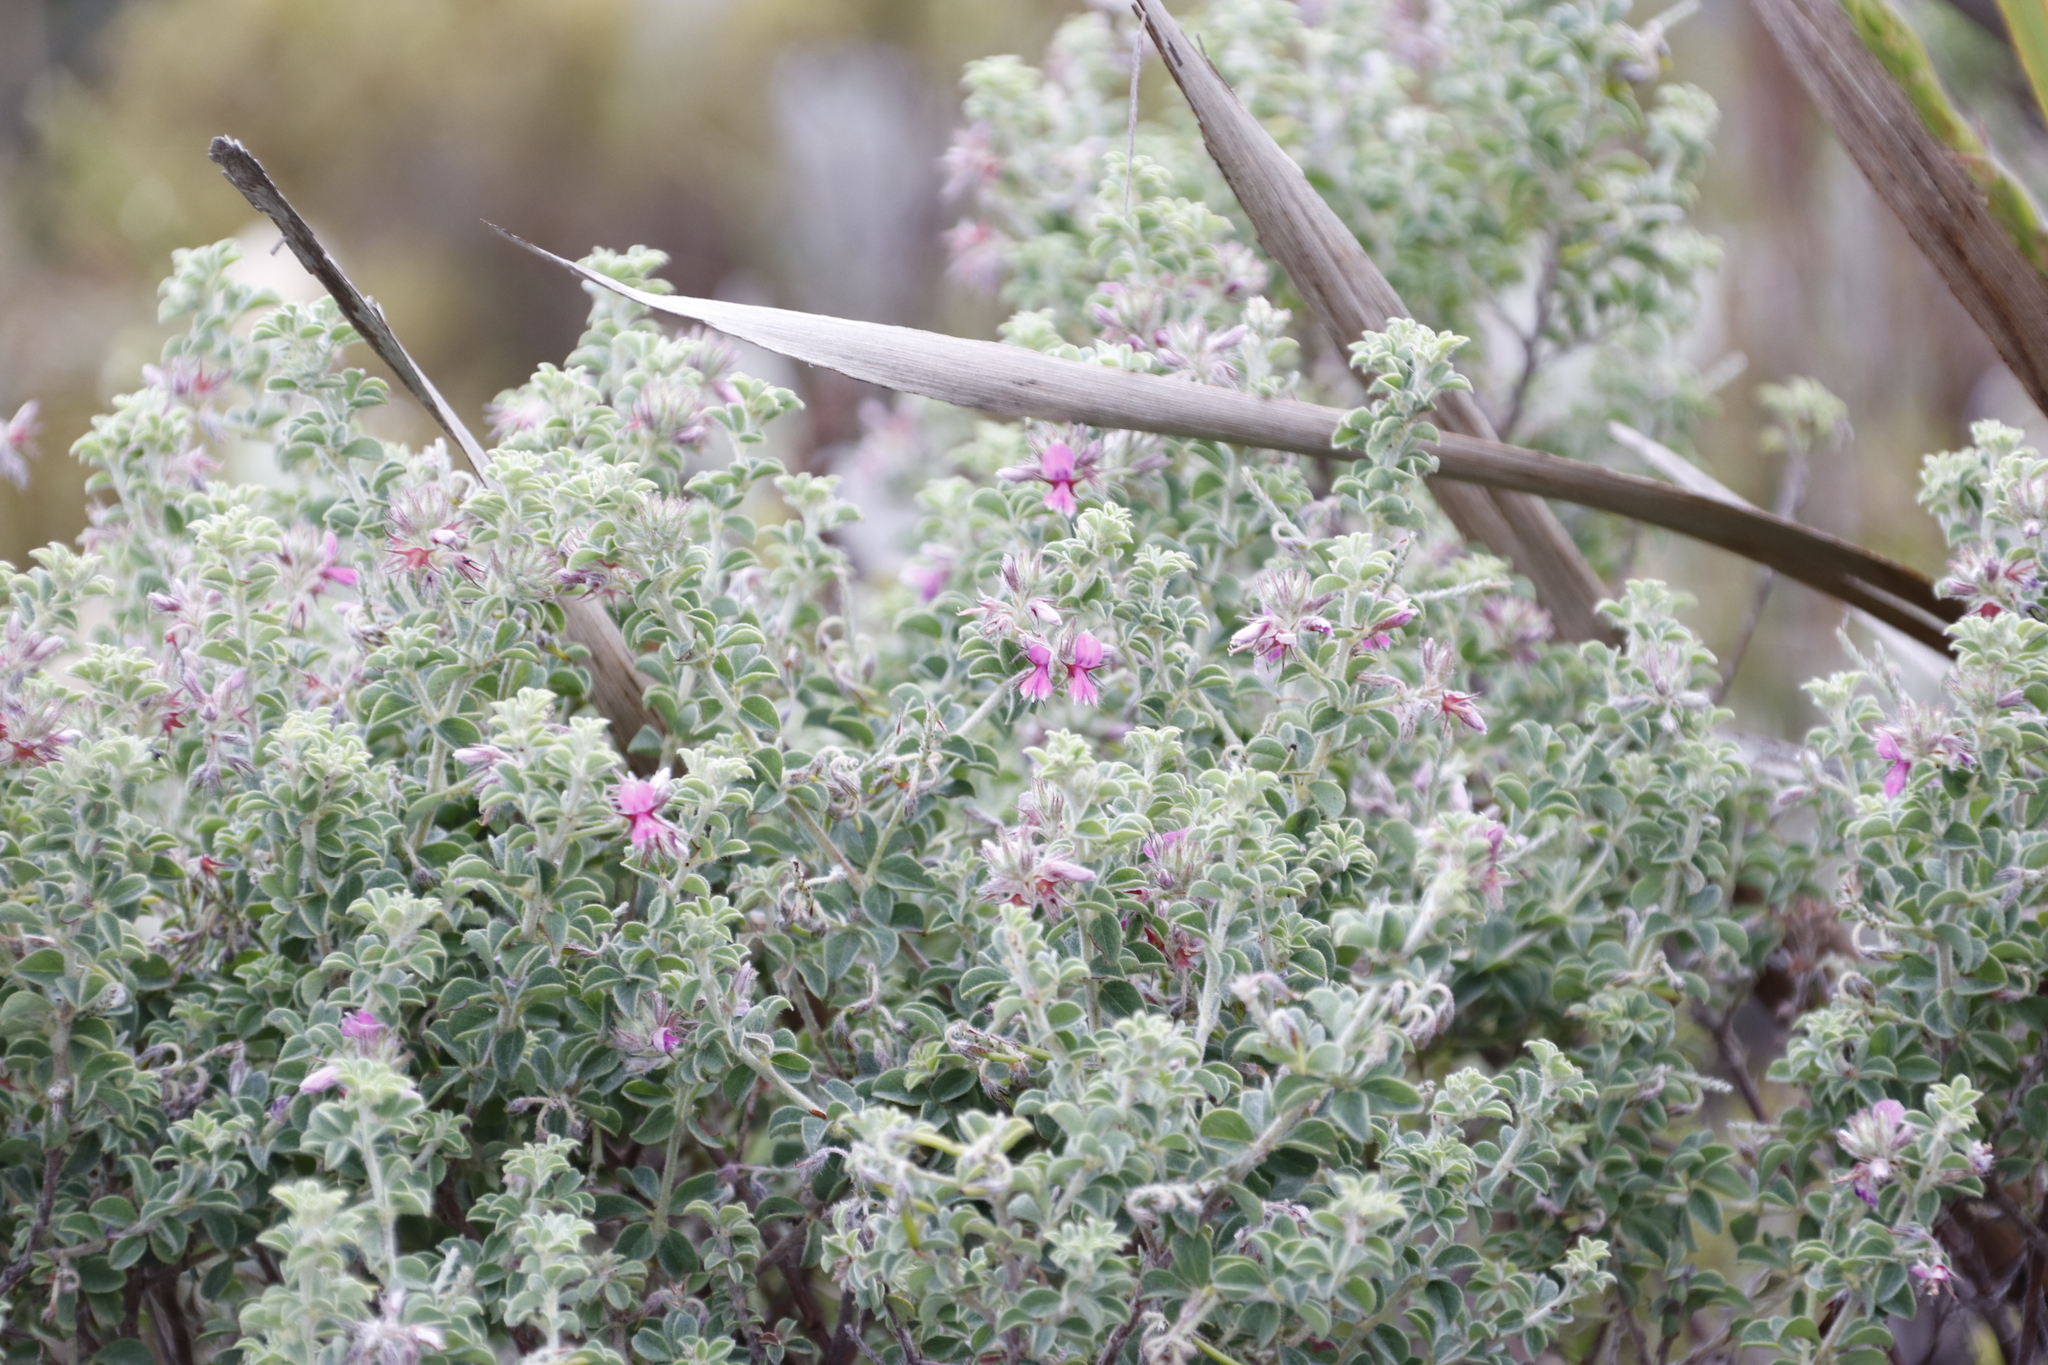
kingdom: Plantae
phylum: Tracheophyta
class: Magnoliopsida
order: Fabales
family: Fabaceae
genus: Indigofera
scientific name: Indigofera candolleana
